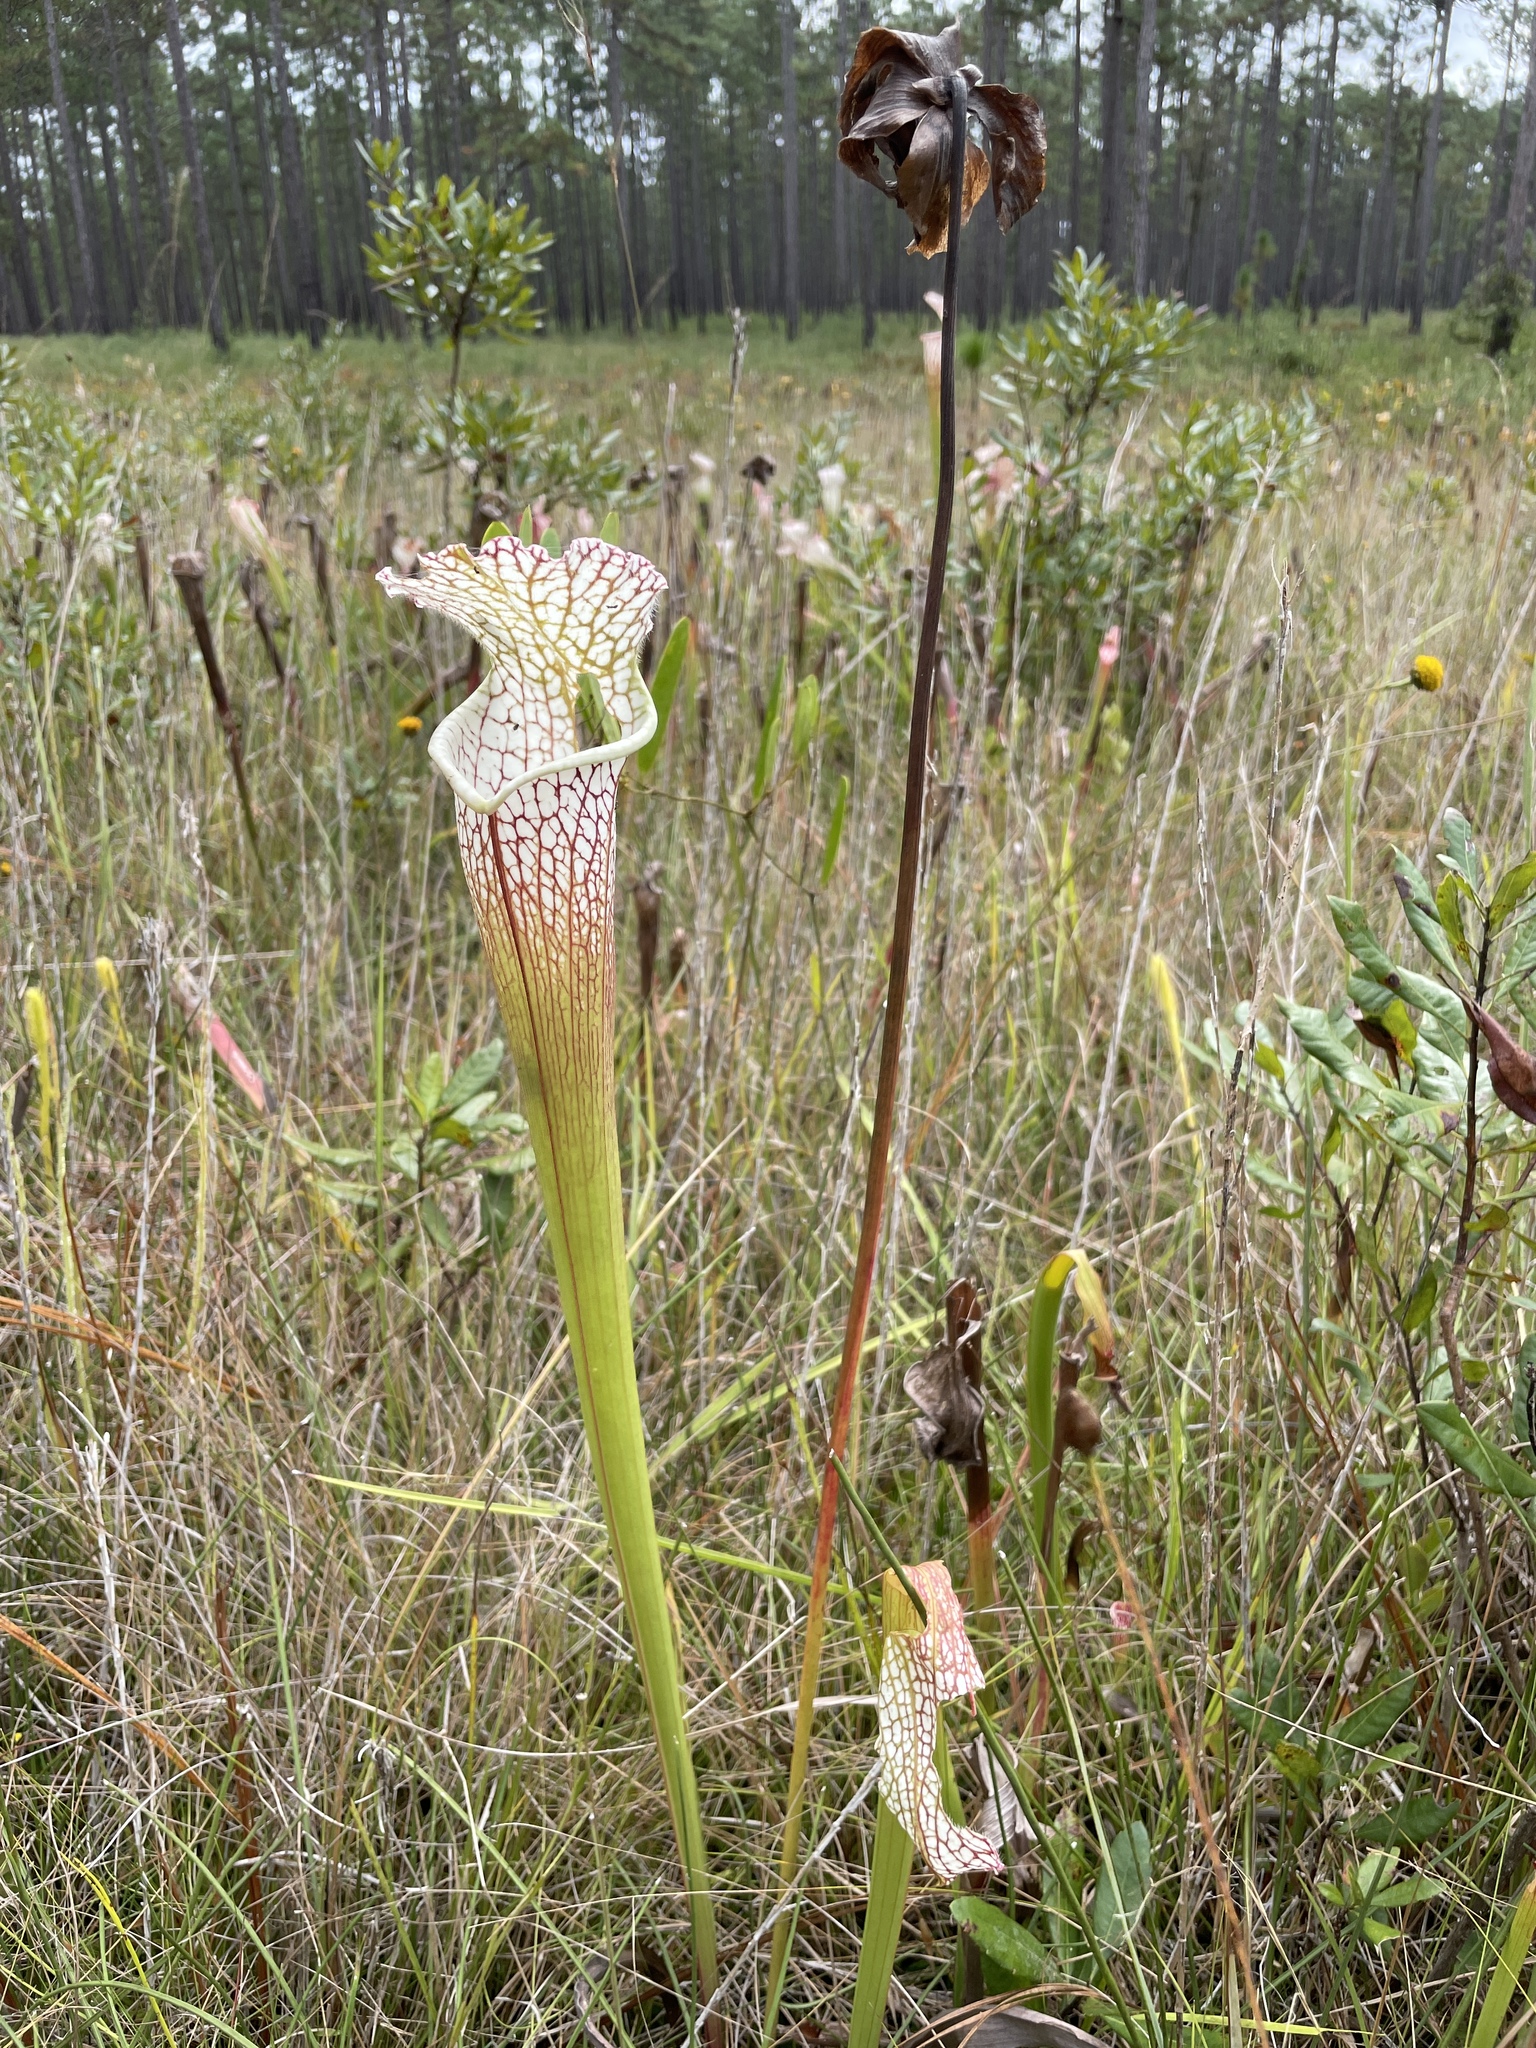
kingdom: Plantae
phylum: Tracheophyta
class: Magnoliopsida
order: Ericales
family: Sarraceniaceae
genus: Sarracenia
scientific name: Sarracenia leucophylla
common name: Purple trumpetleaf
